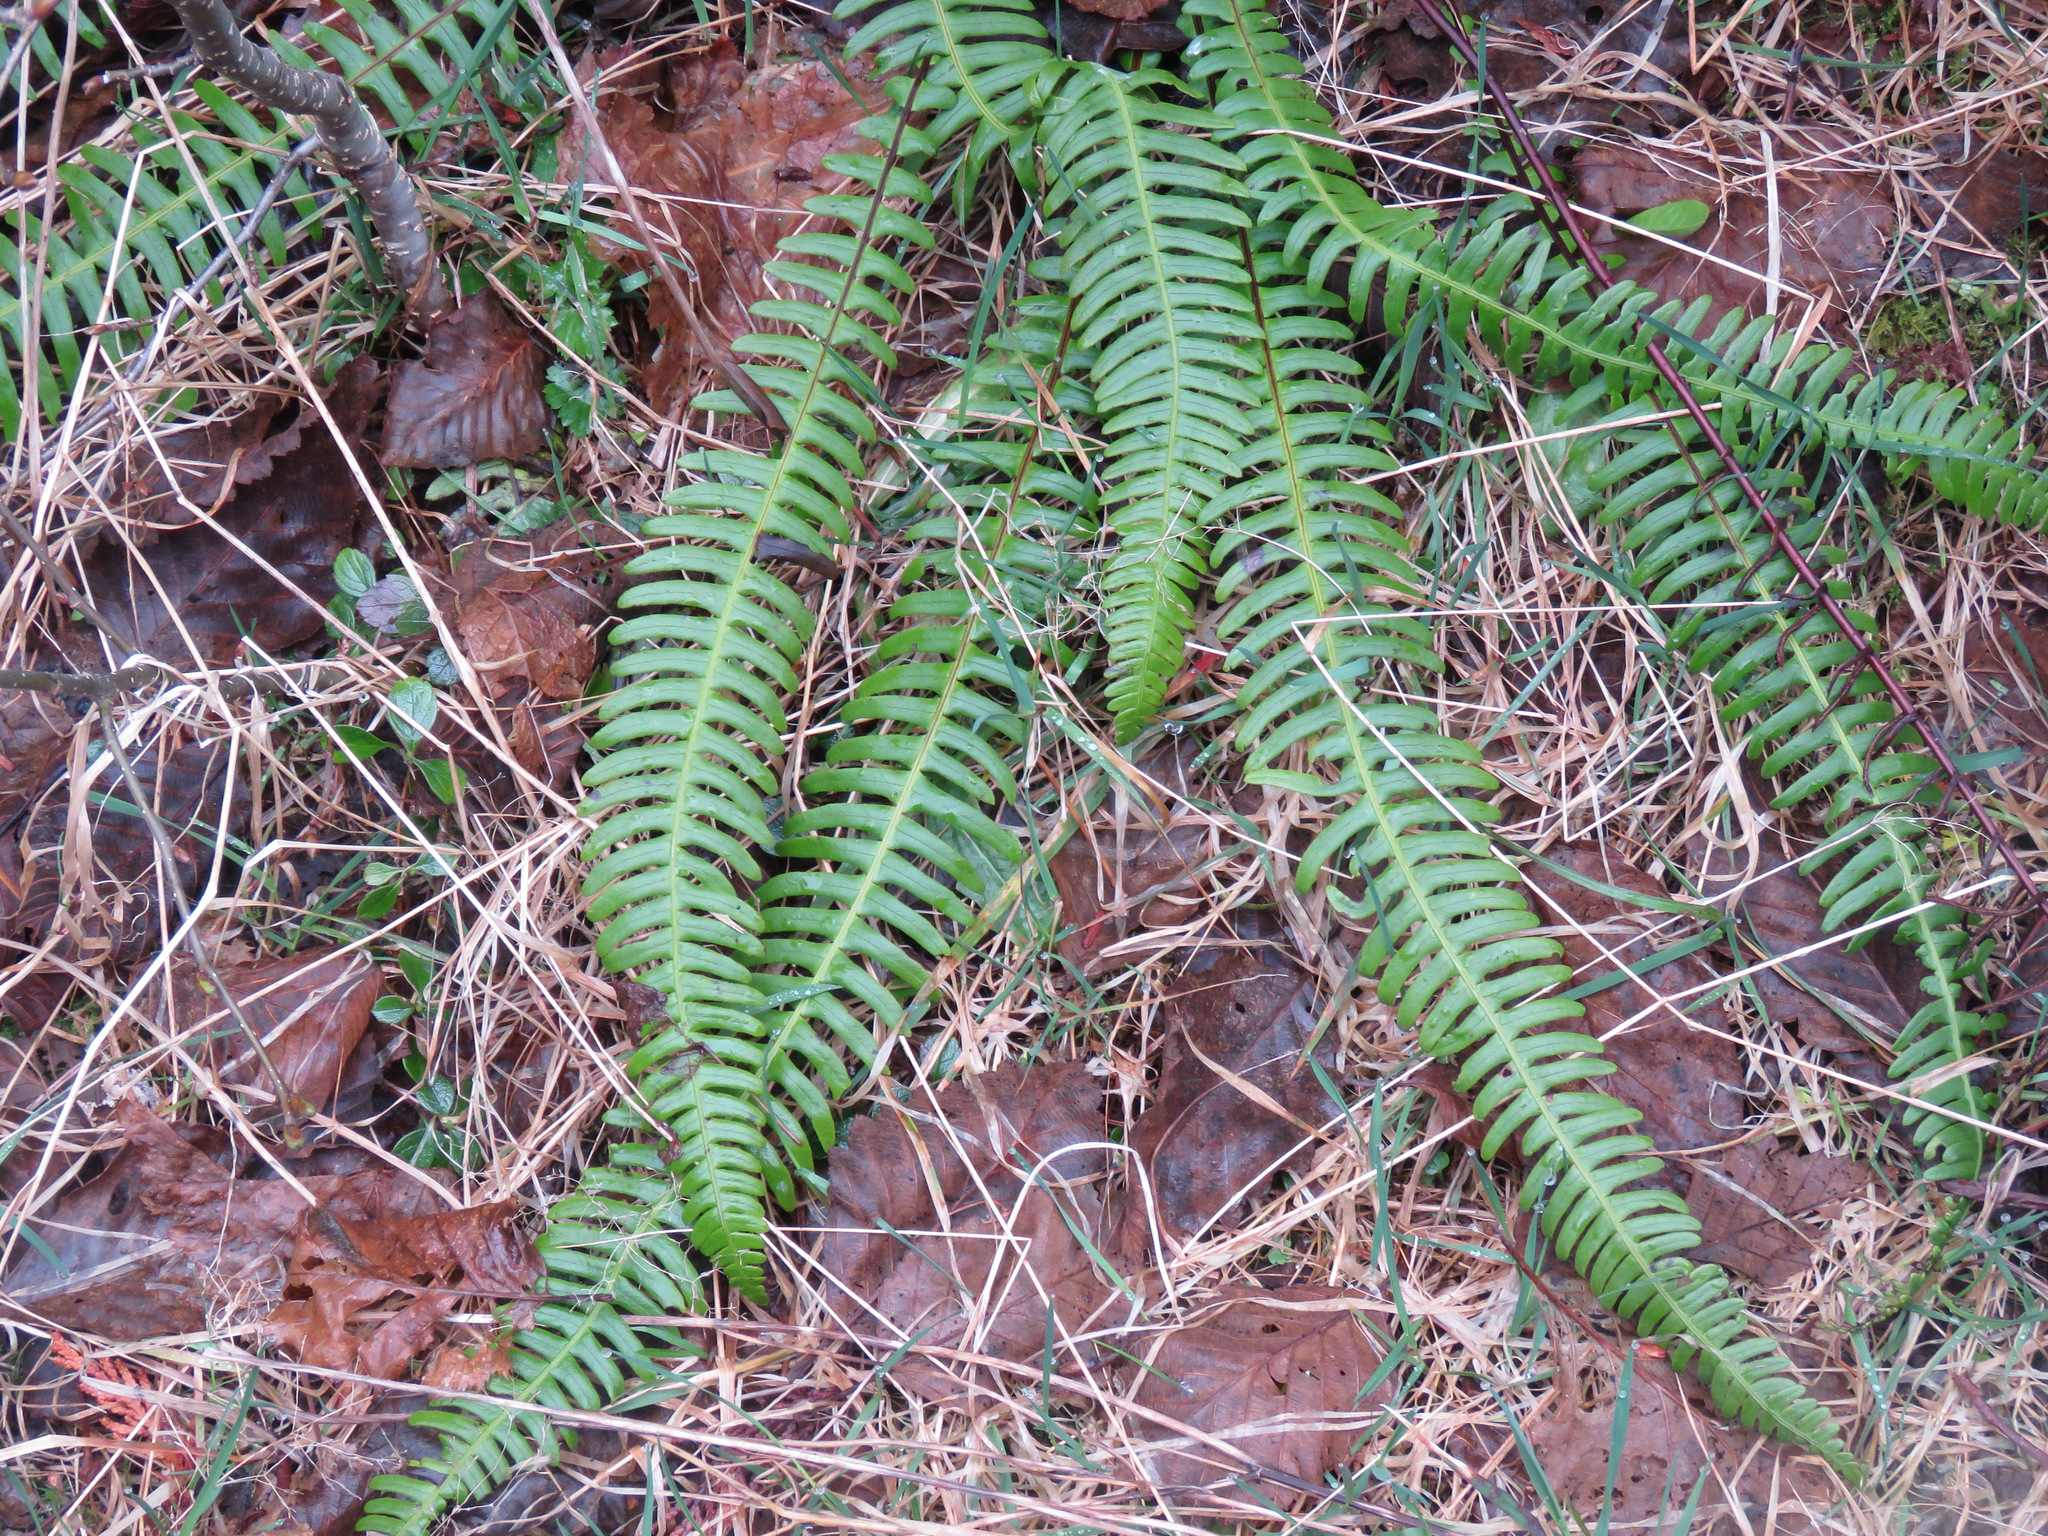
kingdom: Plantae
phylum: Tracheophyta
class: Polypodiopsida
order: Polypodiales
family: Blechnaceae
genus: Struthiopteris
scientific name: Struthiopteris spicant
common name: Deer fern
